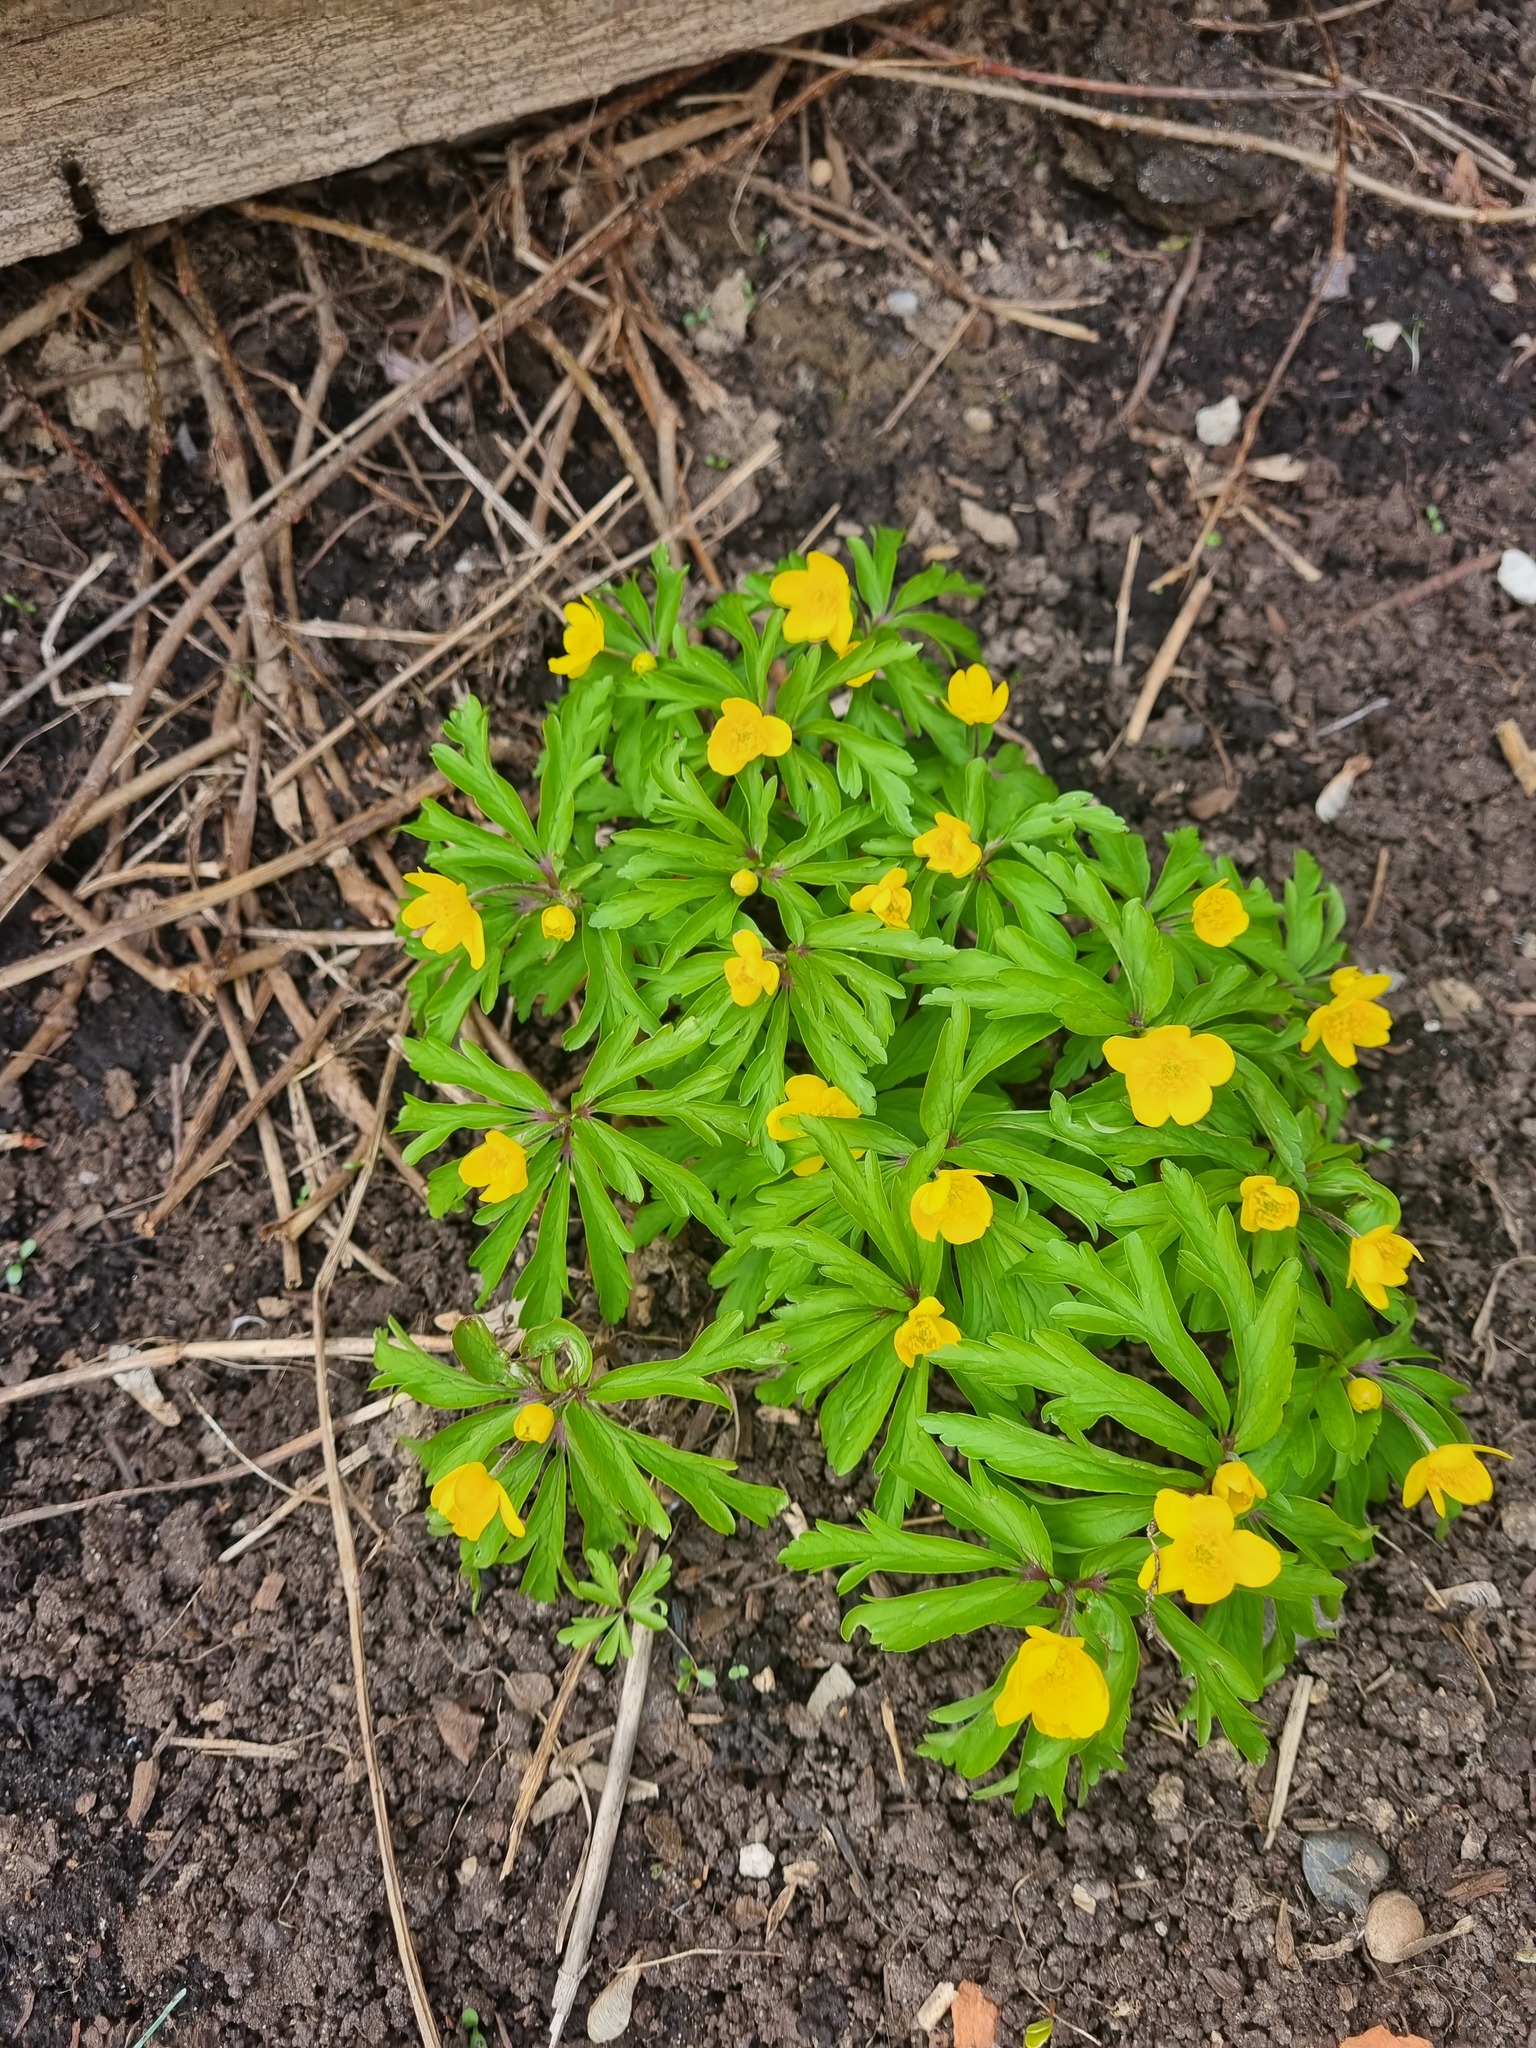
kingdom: Plantae
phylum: Tracheophyta
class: Magnoliopsida
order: Ranunculales
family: Ranunculaceae
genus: Anemone
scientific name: Anemone ranunculoides
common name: Yellow anemone
